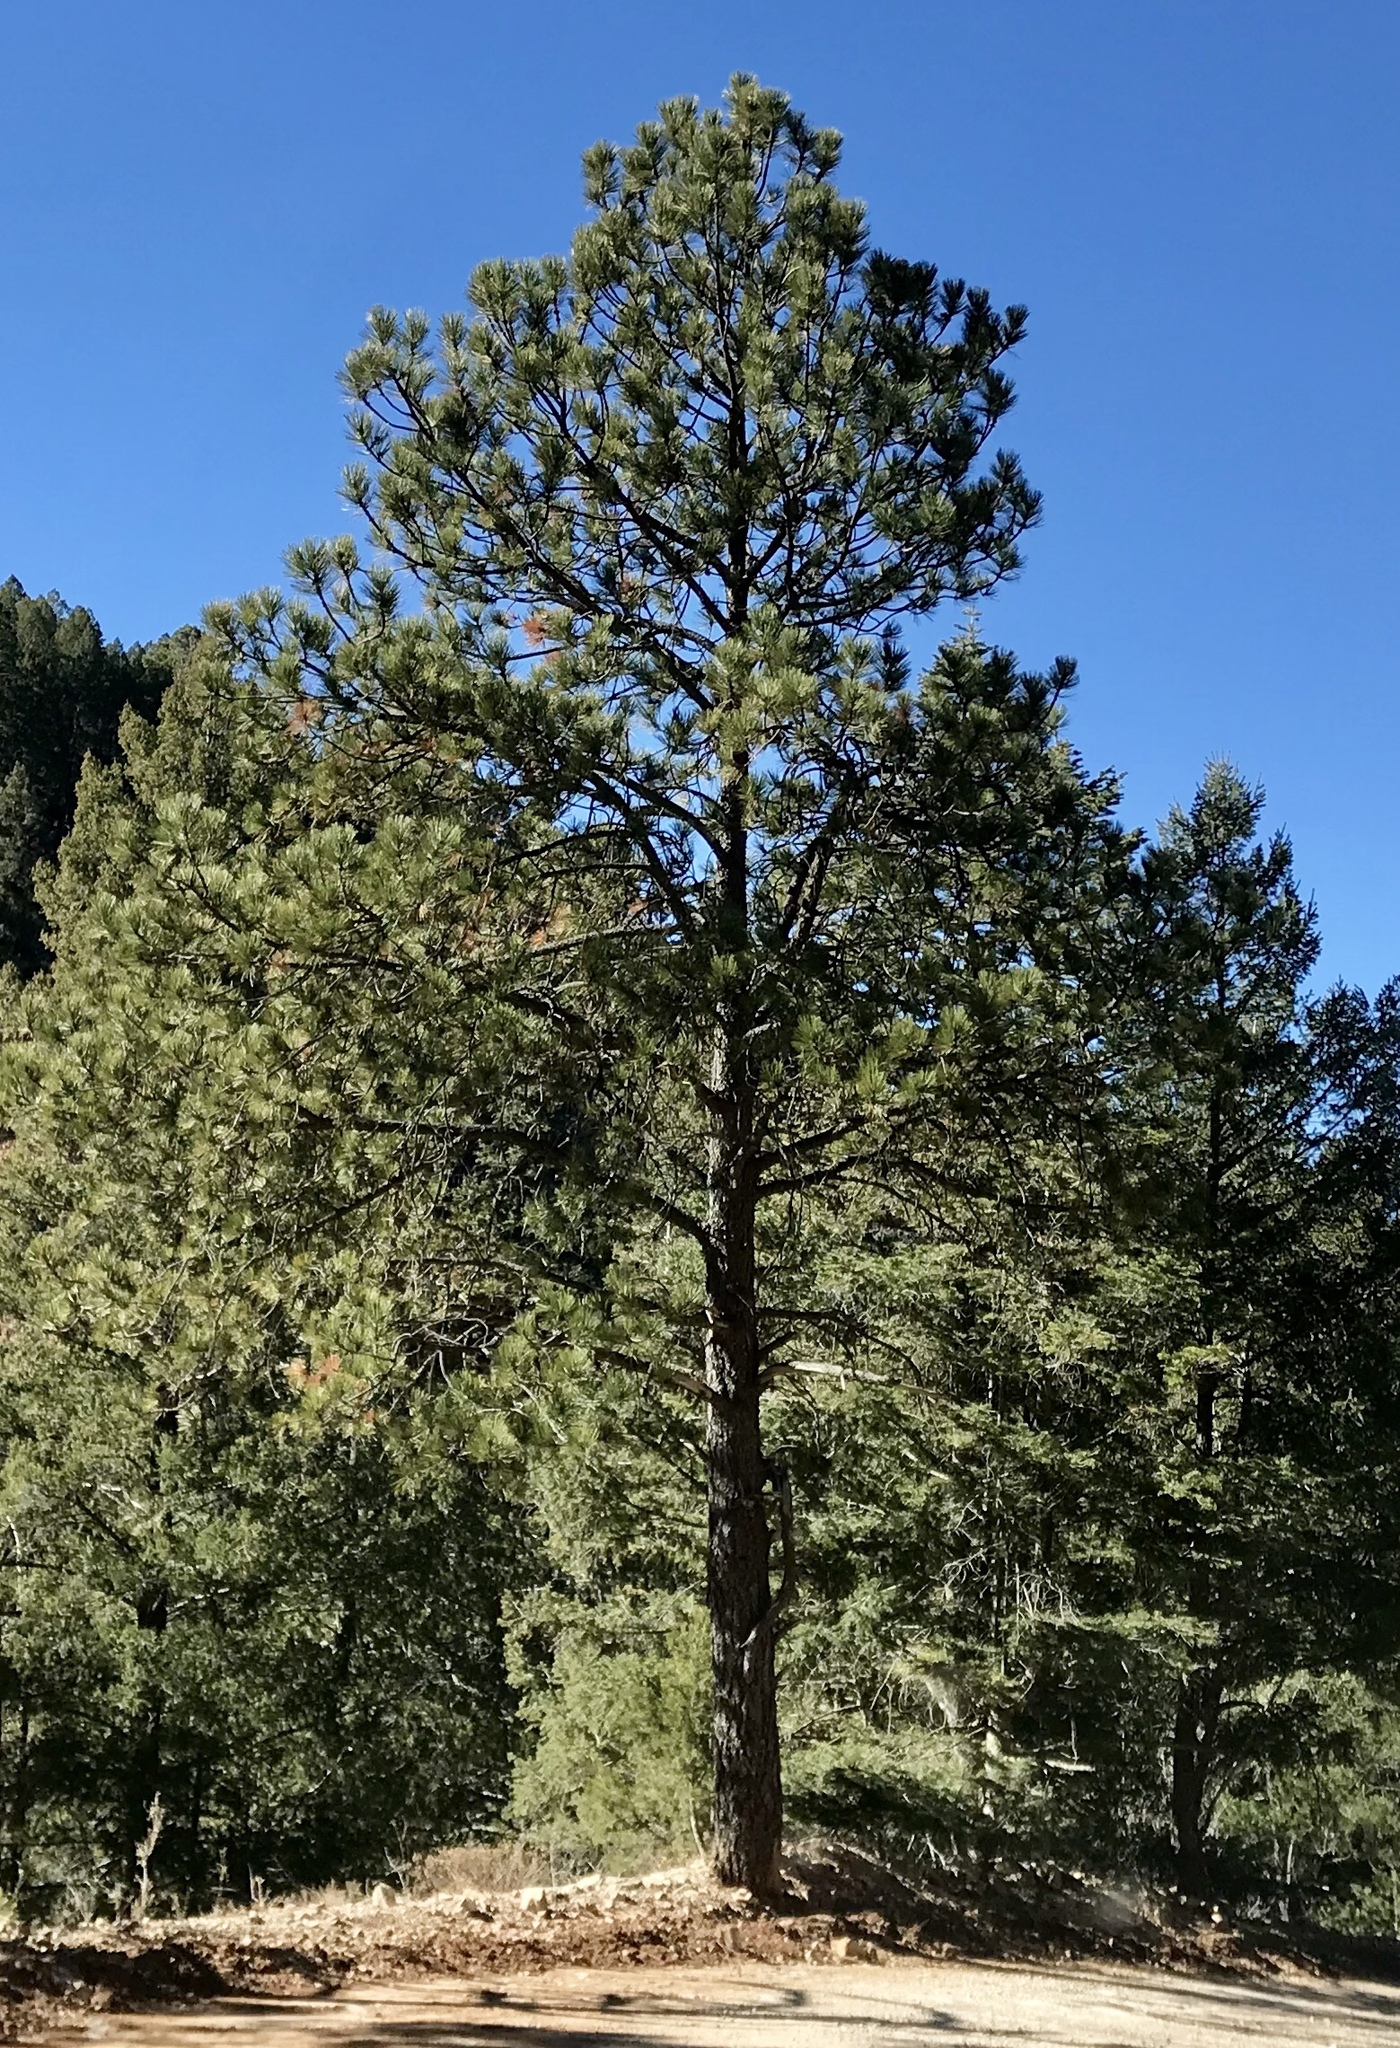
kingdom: Plantae
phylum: Tracheophyta
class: Pinopsida
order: Pinales
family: Pinaceae
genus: Pinus
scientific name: Pinus ponderosa
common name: Western yellow-pine
